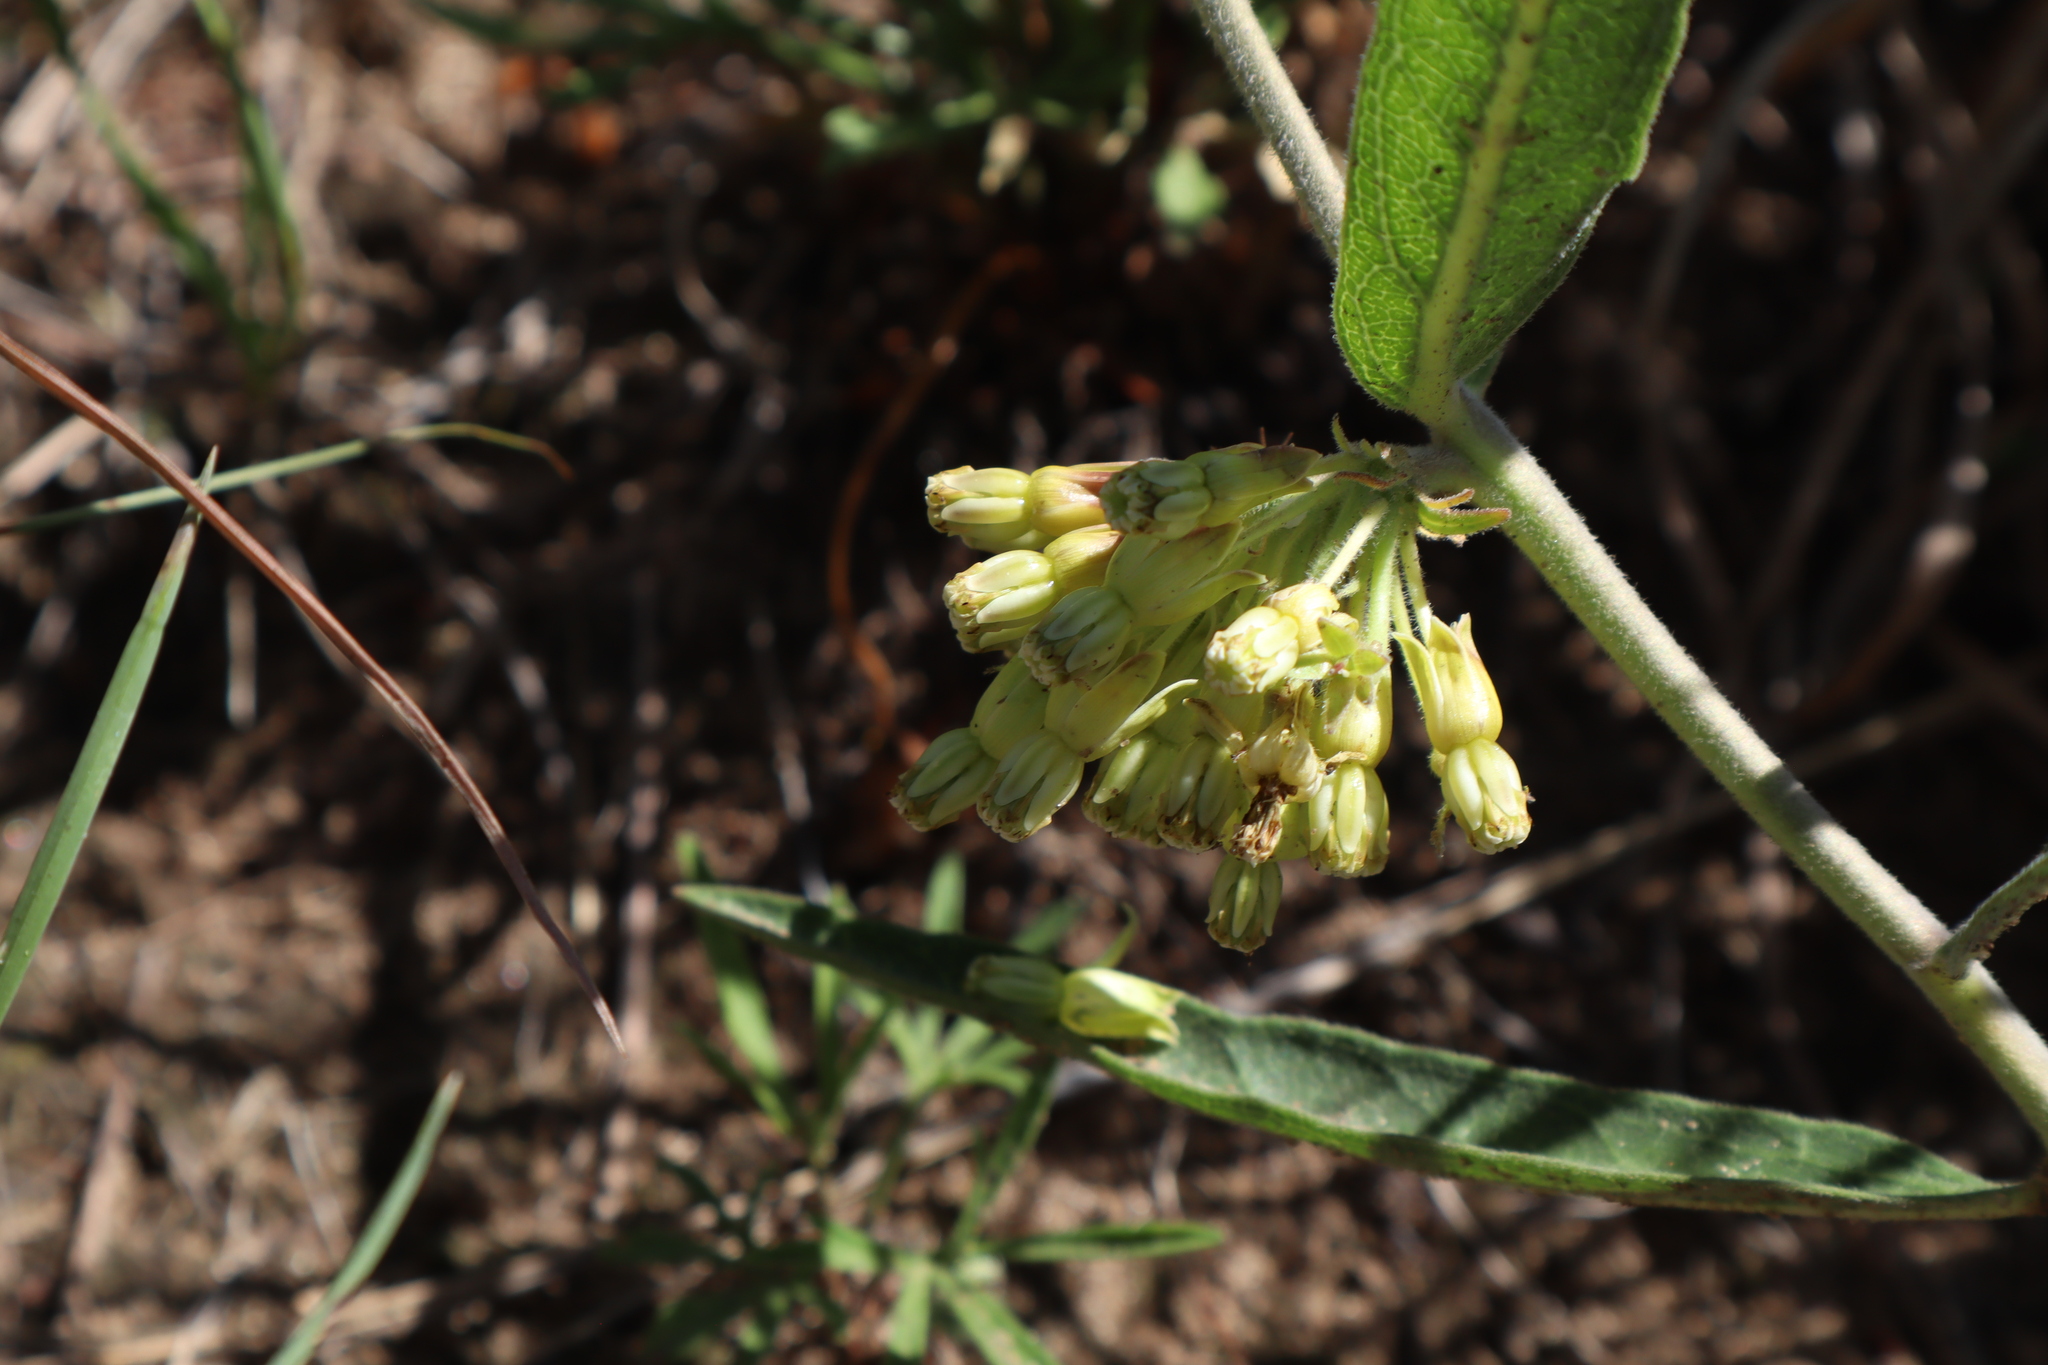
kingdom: Plantae
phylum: Tracheophyta
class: Magnoliopsida
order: Gentianales
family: Apocynaceae
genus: Asclepias
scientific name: Asclepias viridiflora
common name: Green comet milkweed
